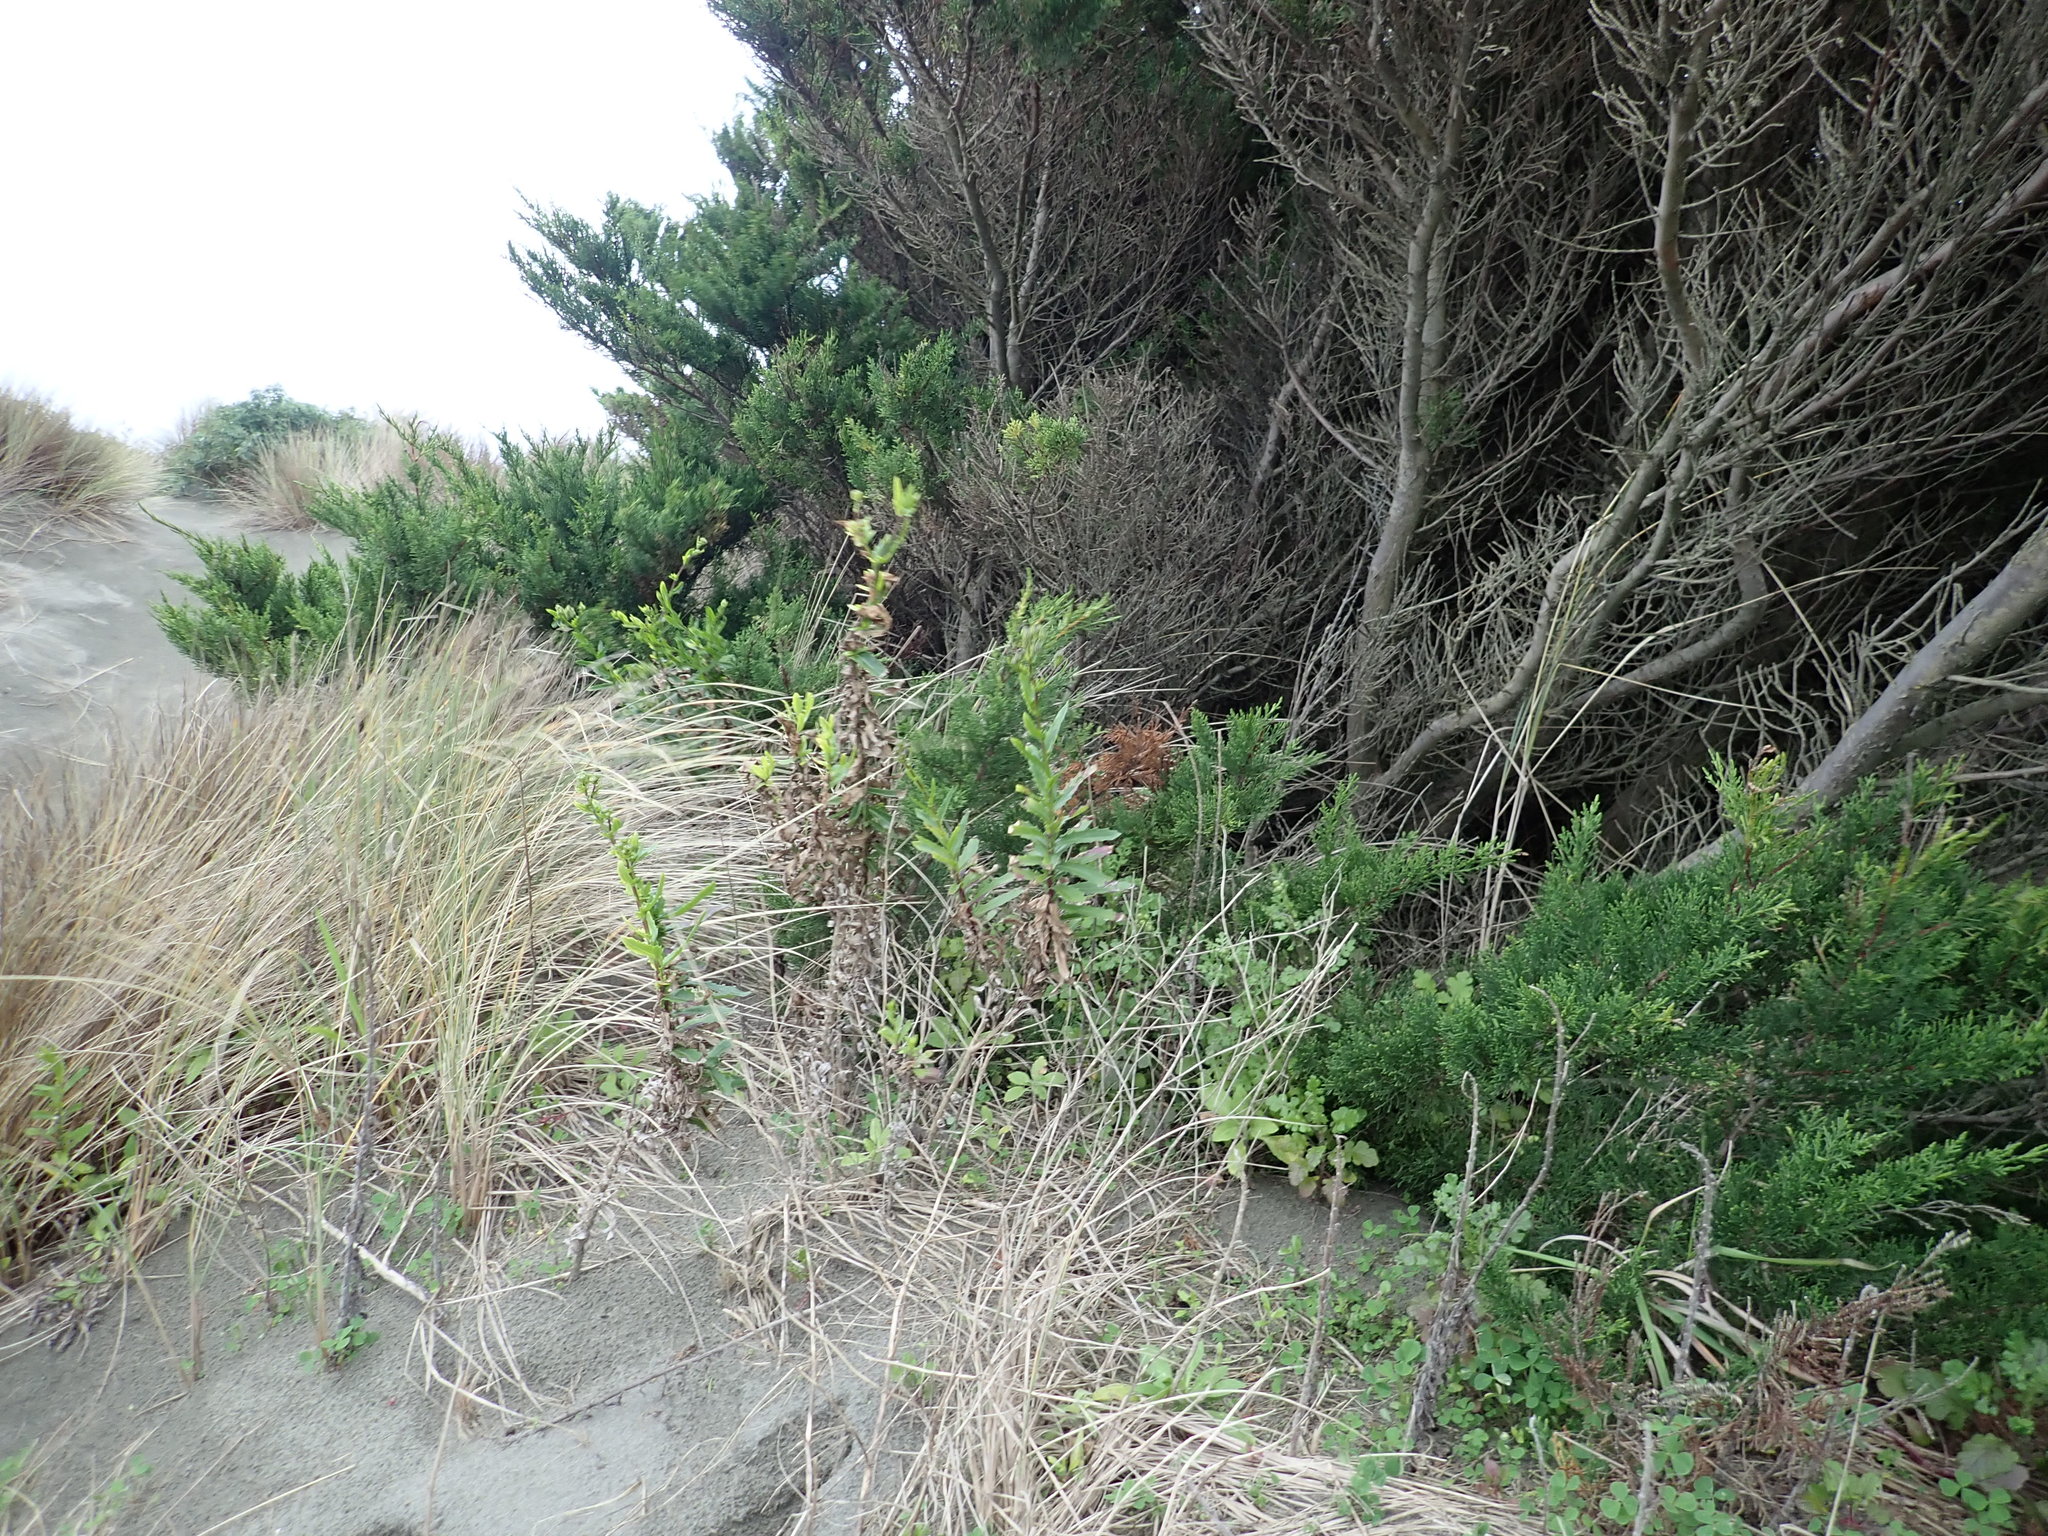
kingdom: Plantae
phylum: Tracheophyta
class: Pinopsida
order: Pinales
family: Cupressaceae
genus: Cupressus
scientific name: Cupressus macrocarpa
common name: Monterey cypress
